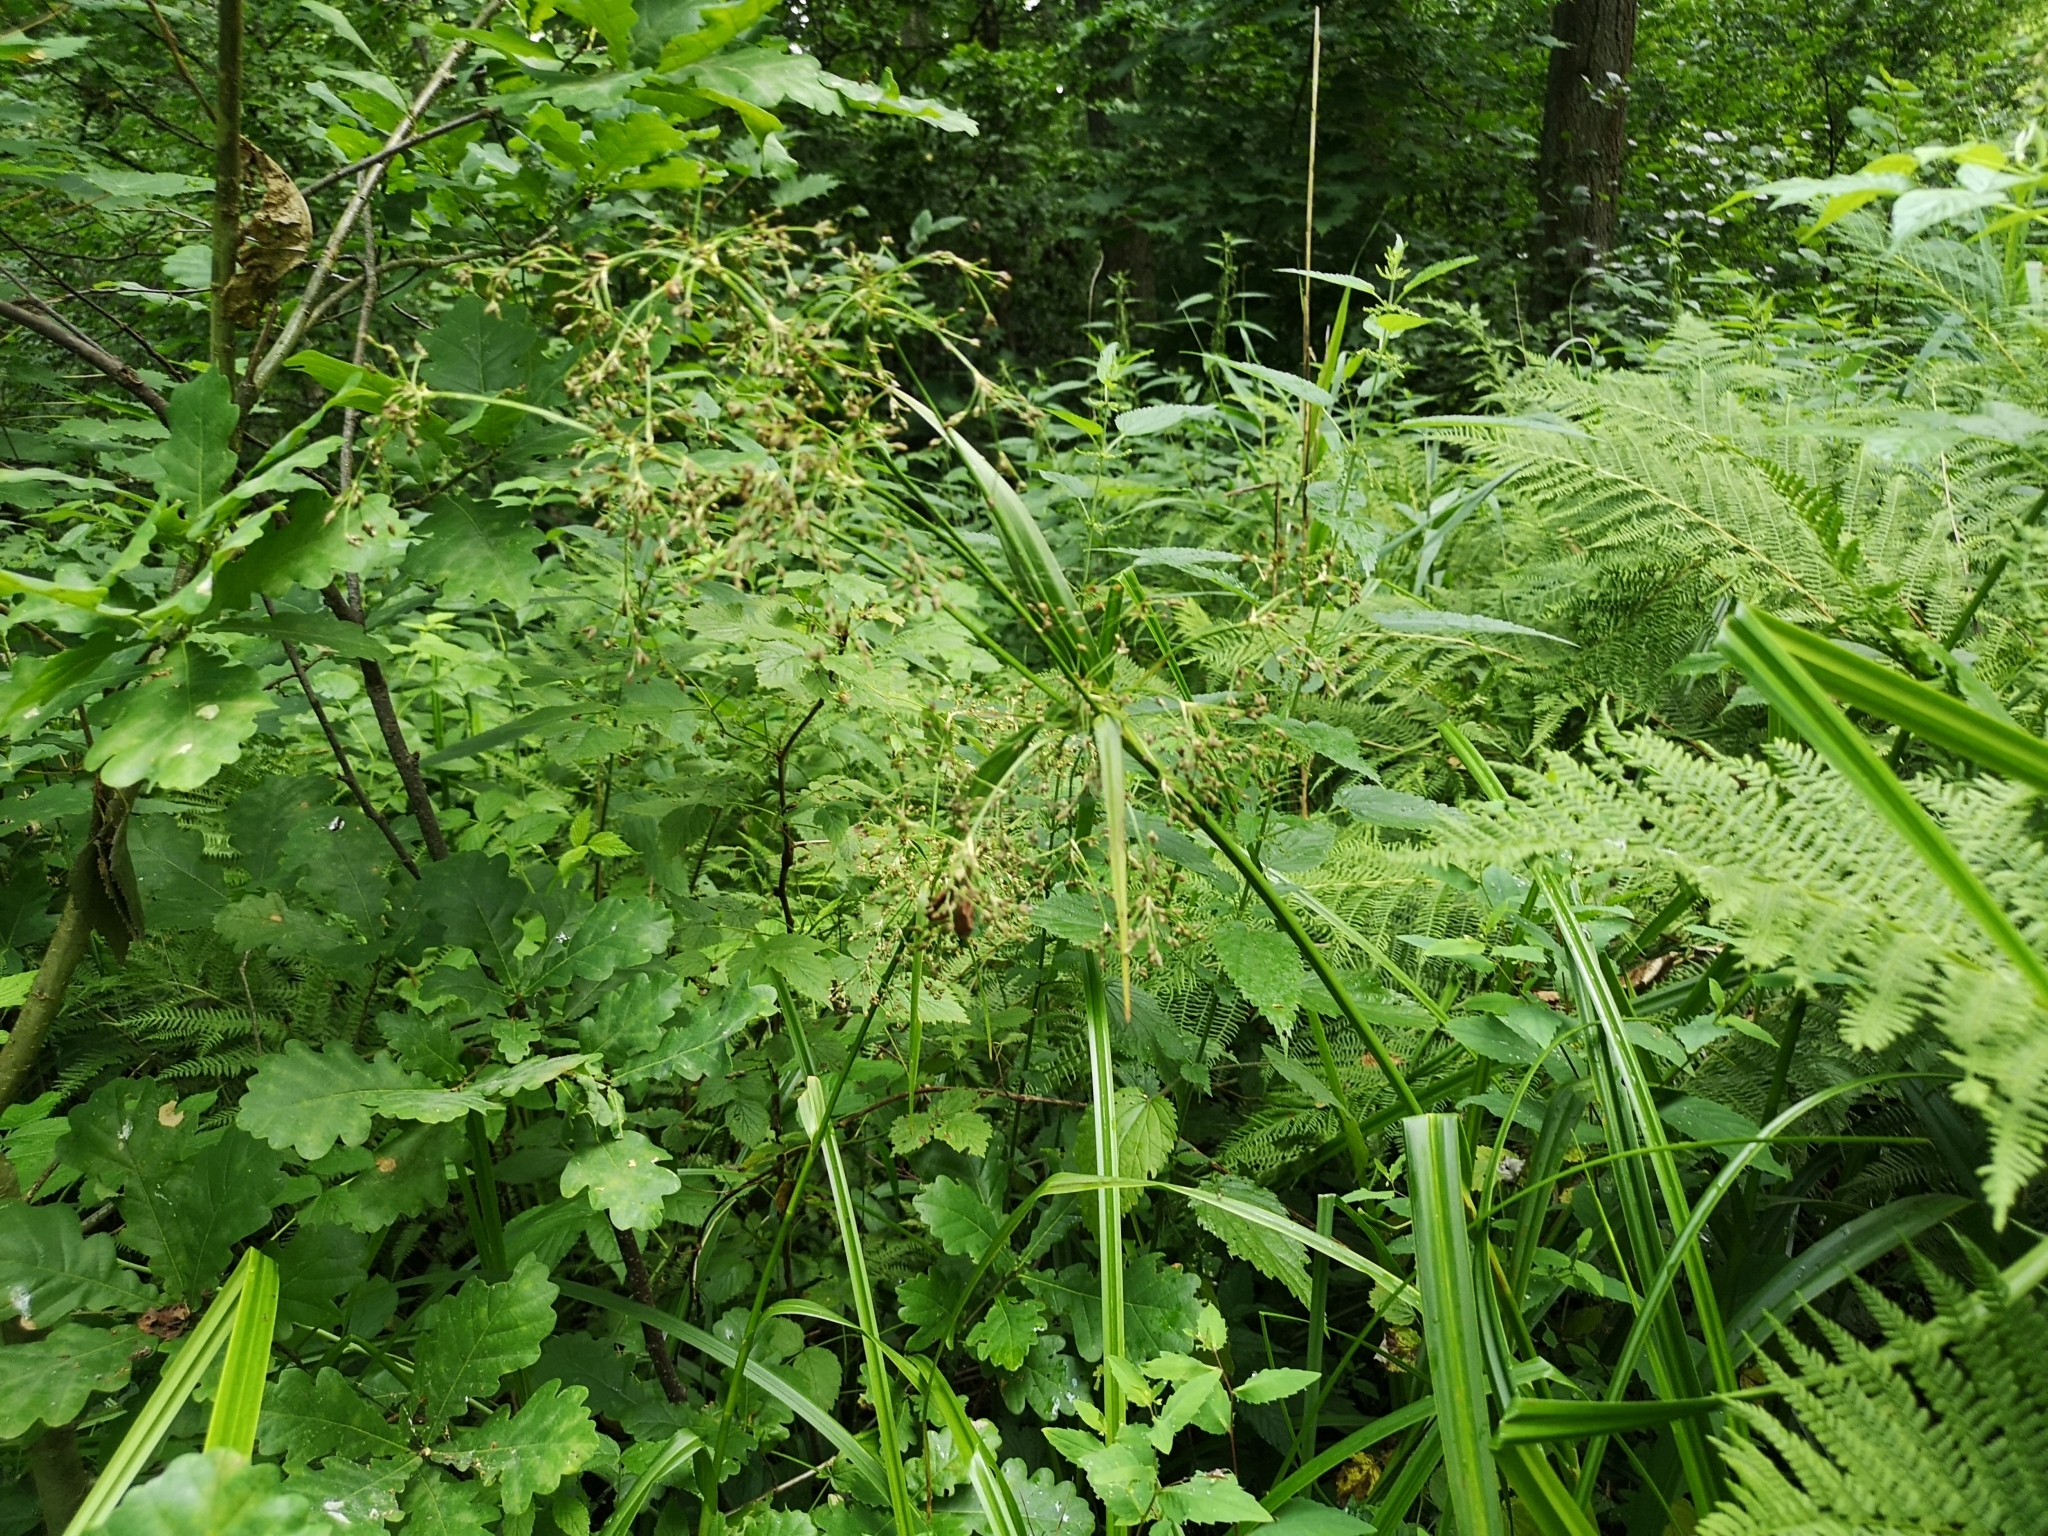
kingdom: Plantae
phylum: Tracheophyta
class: Liliopsida
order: Poales
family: Cyperaceae
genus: Scirpus
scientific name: Scirpus sylvaticus
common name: Wood club-rush
